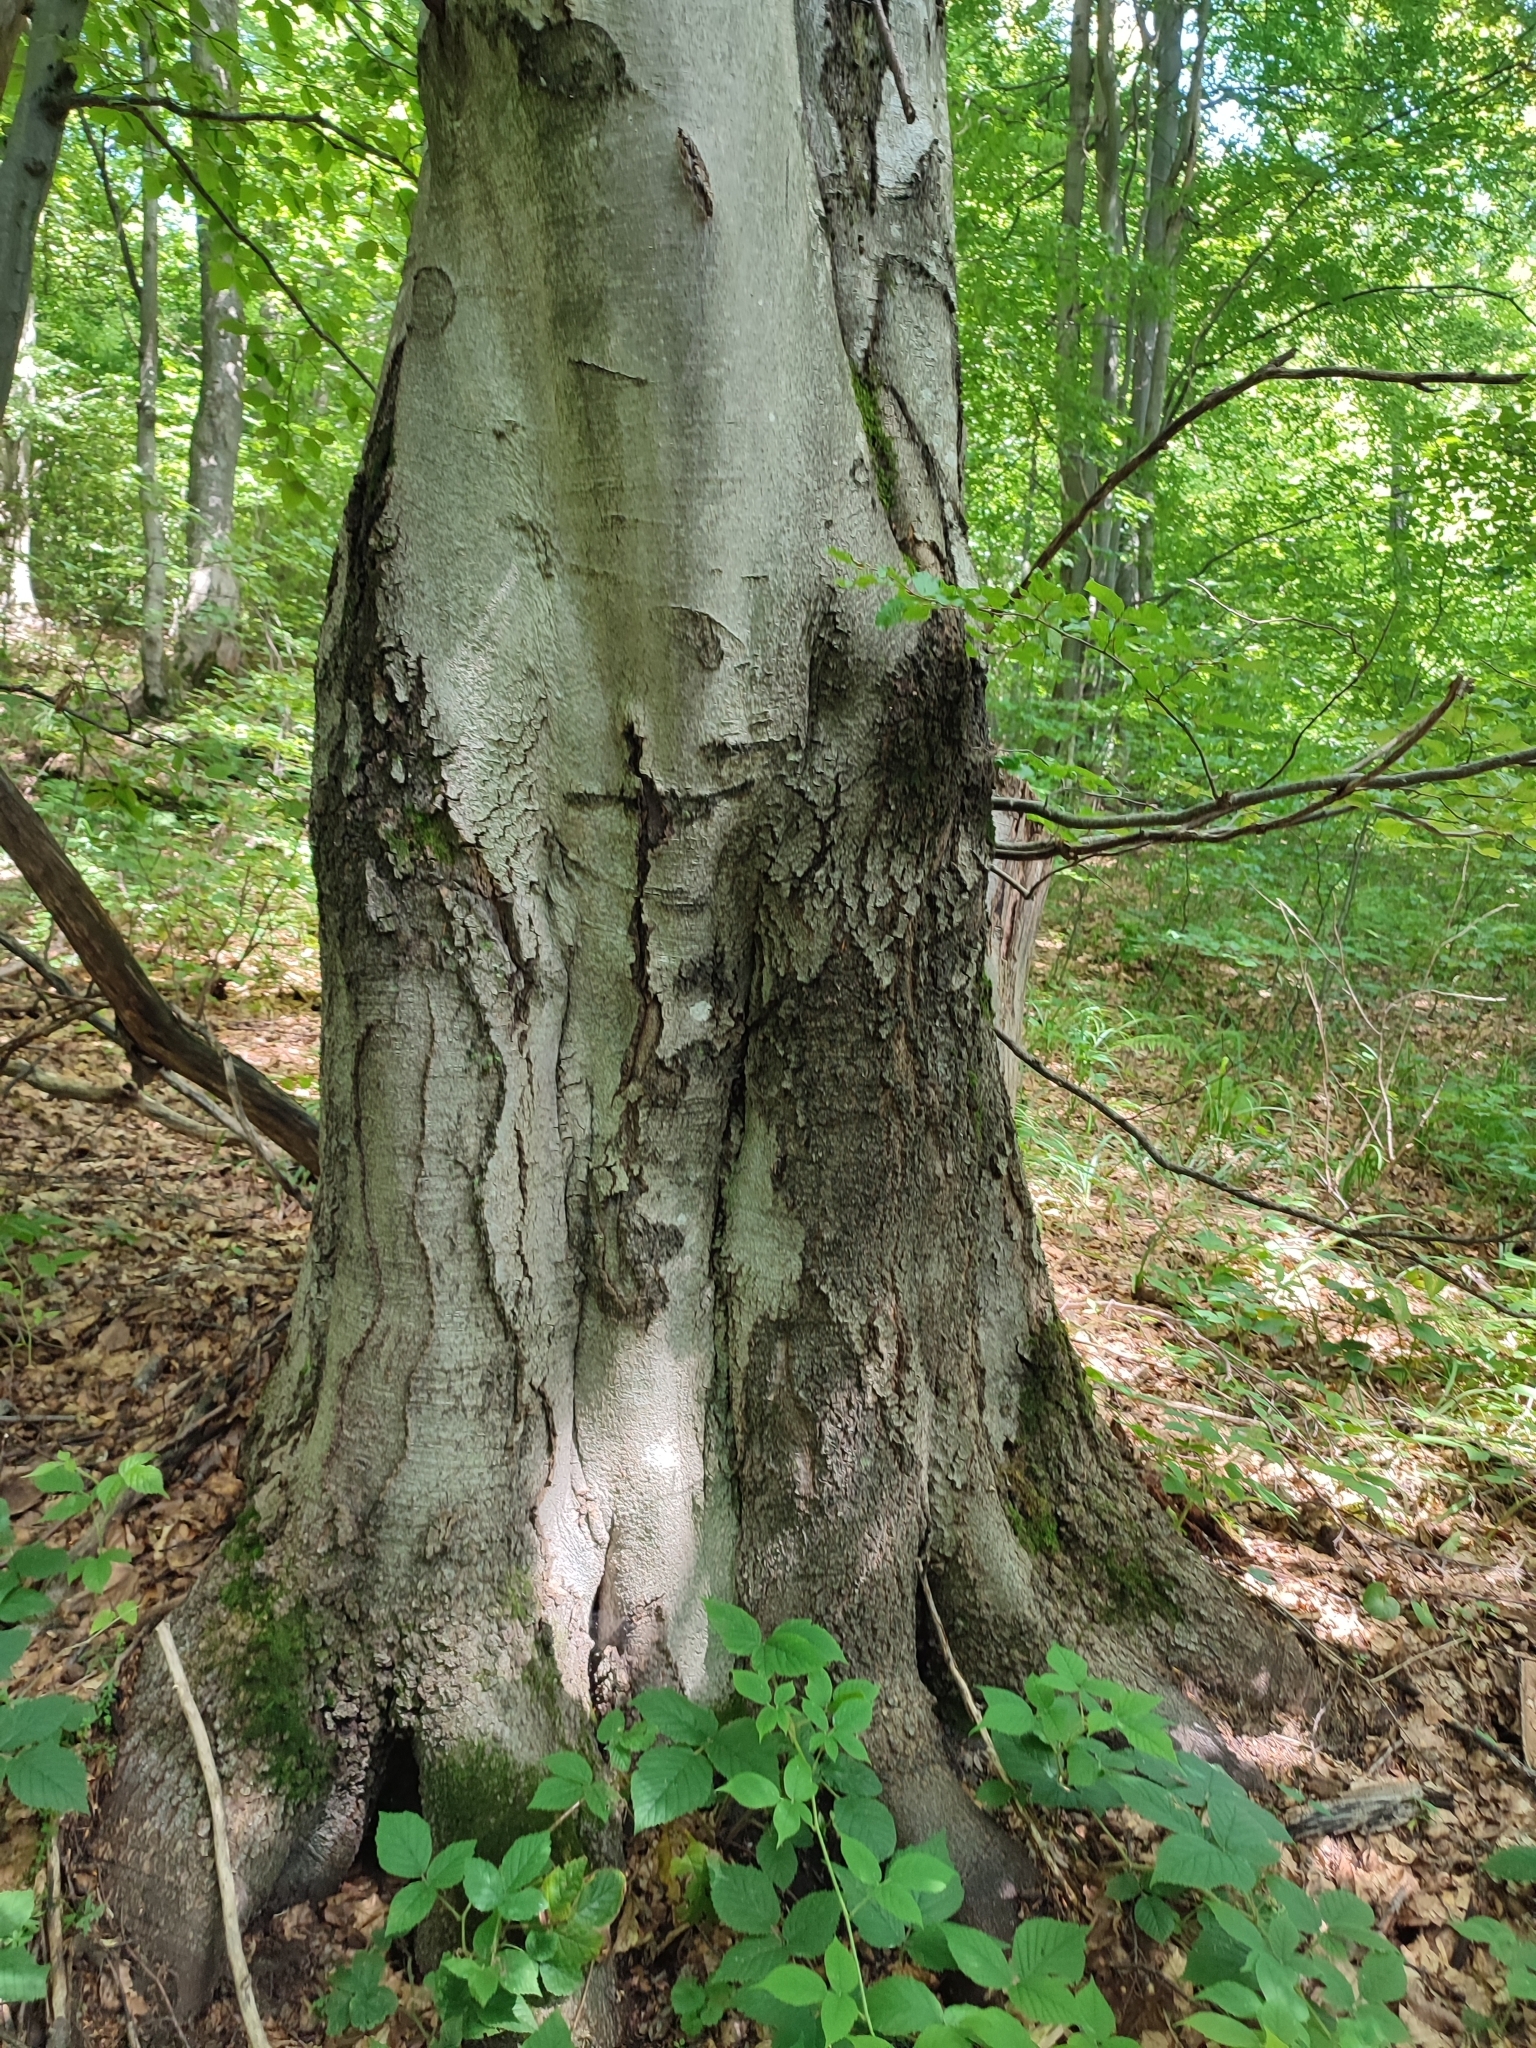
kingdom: Plantae
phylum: Tracheophyta
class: Magnoliopsida
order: Fagales
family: Fagaceae
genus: Fagus
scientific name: Fagus sylvatica
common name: Beech
